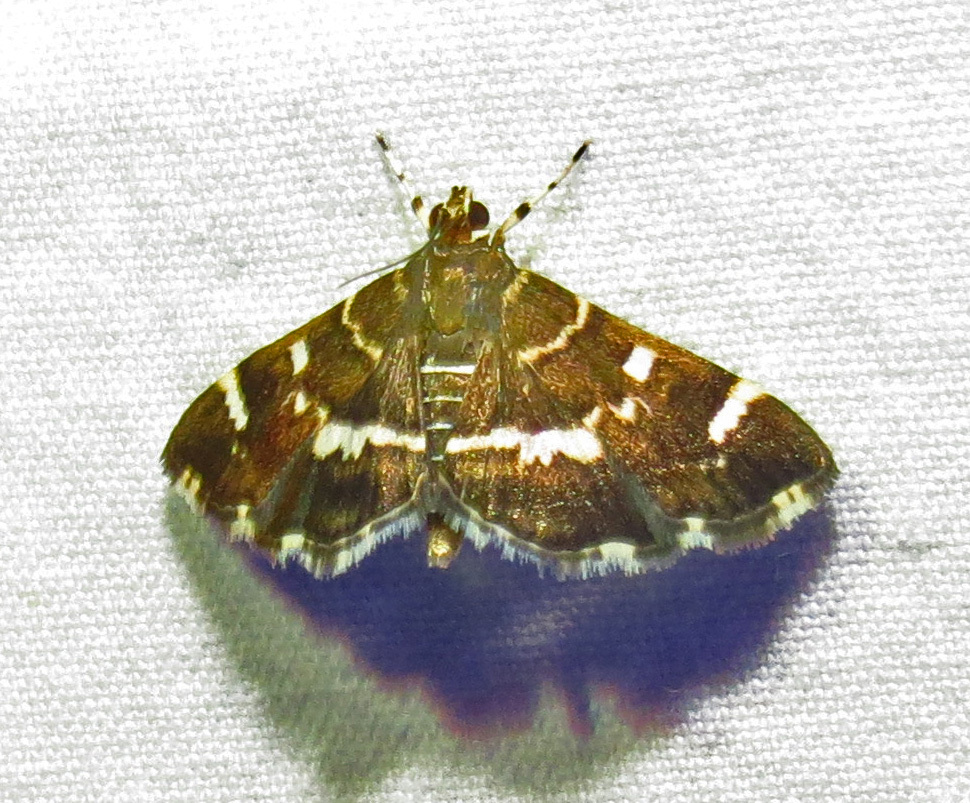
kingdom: Animalia
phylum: Arthropoda
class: Insecta
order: Lepidoptera
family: Crambidae
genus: Hymenia
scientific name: Hymenia perspectalis
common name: Spotted beet webworm
